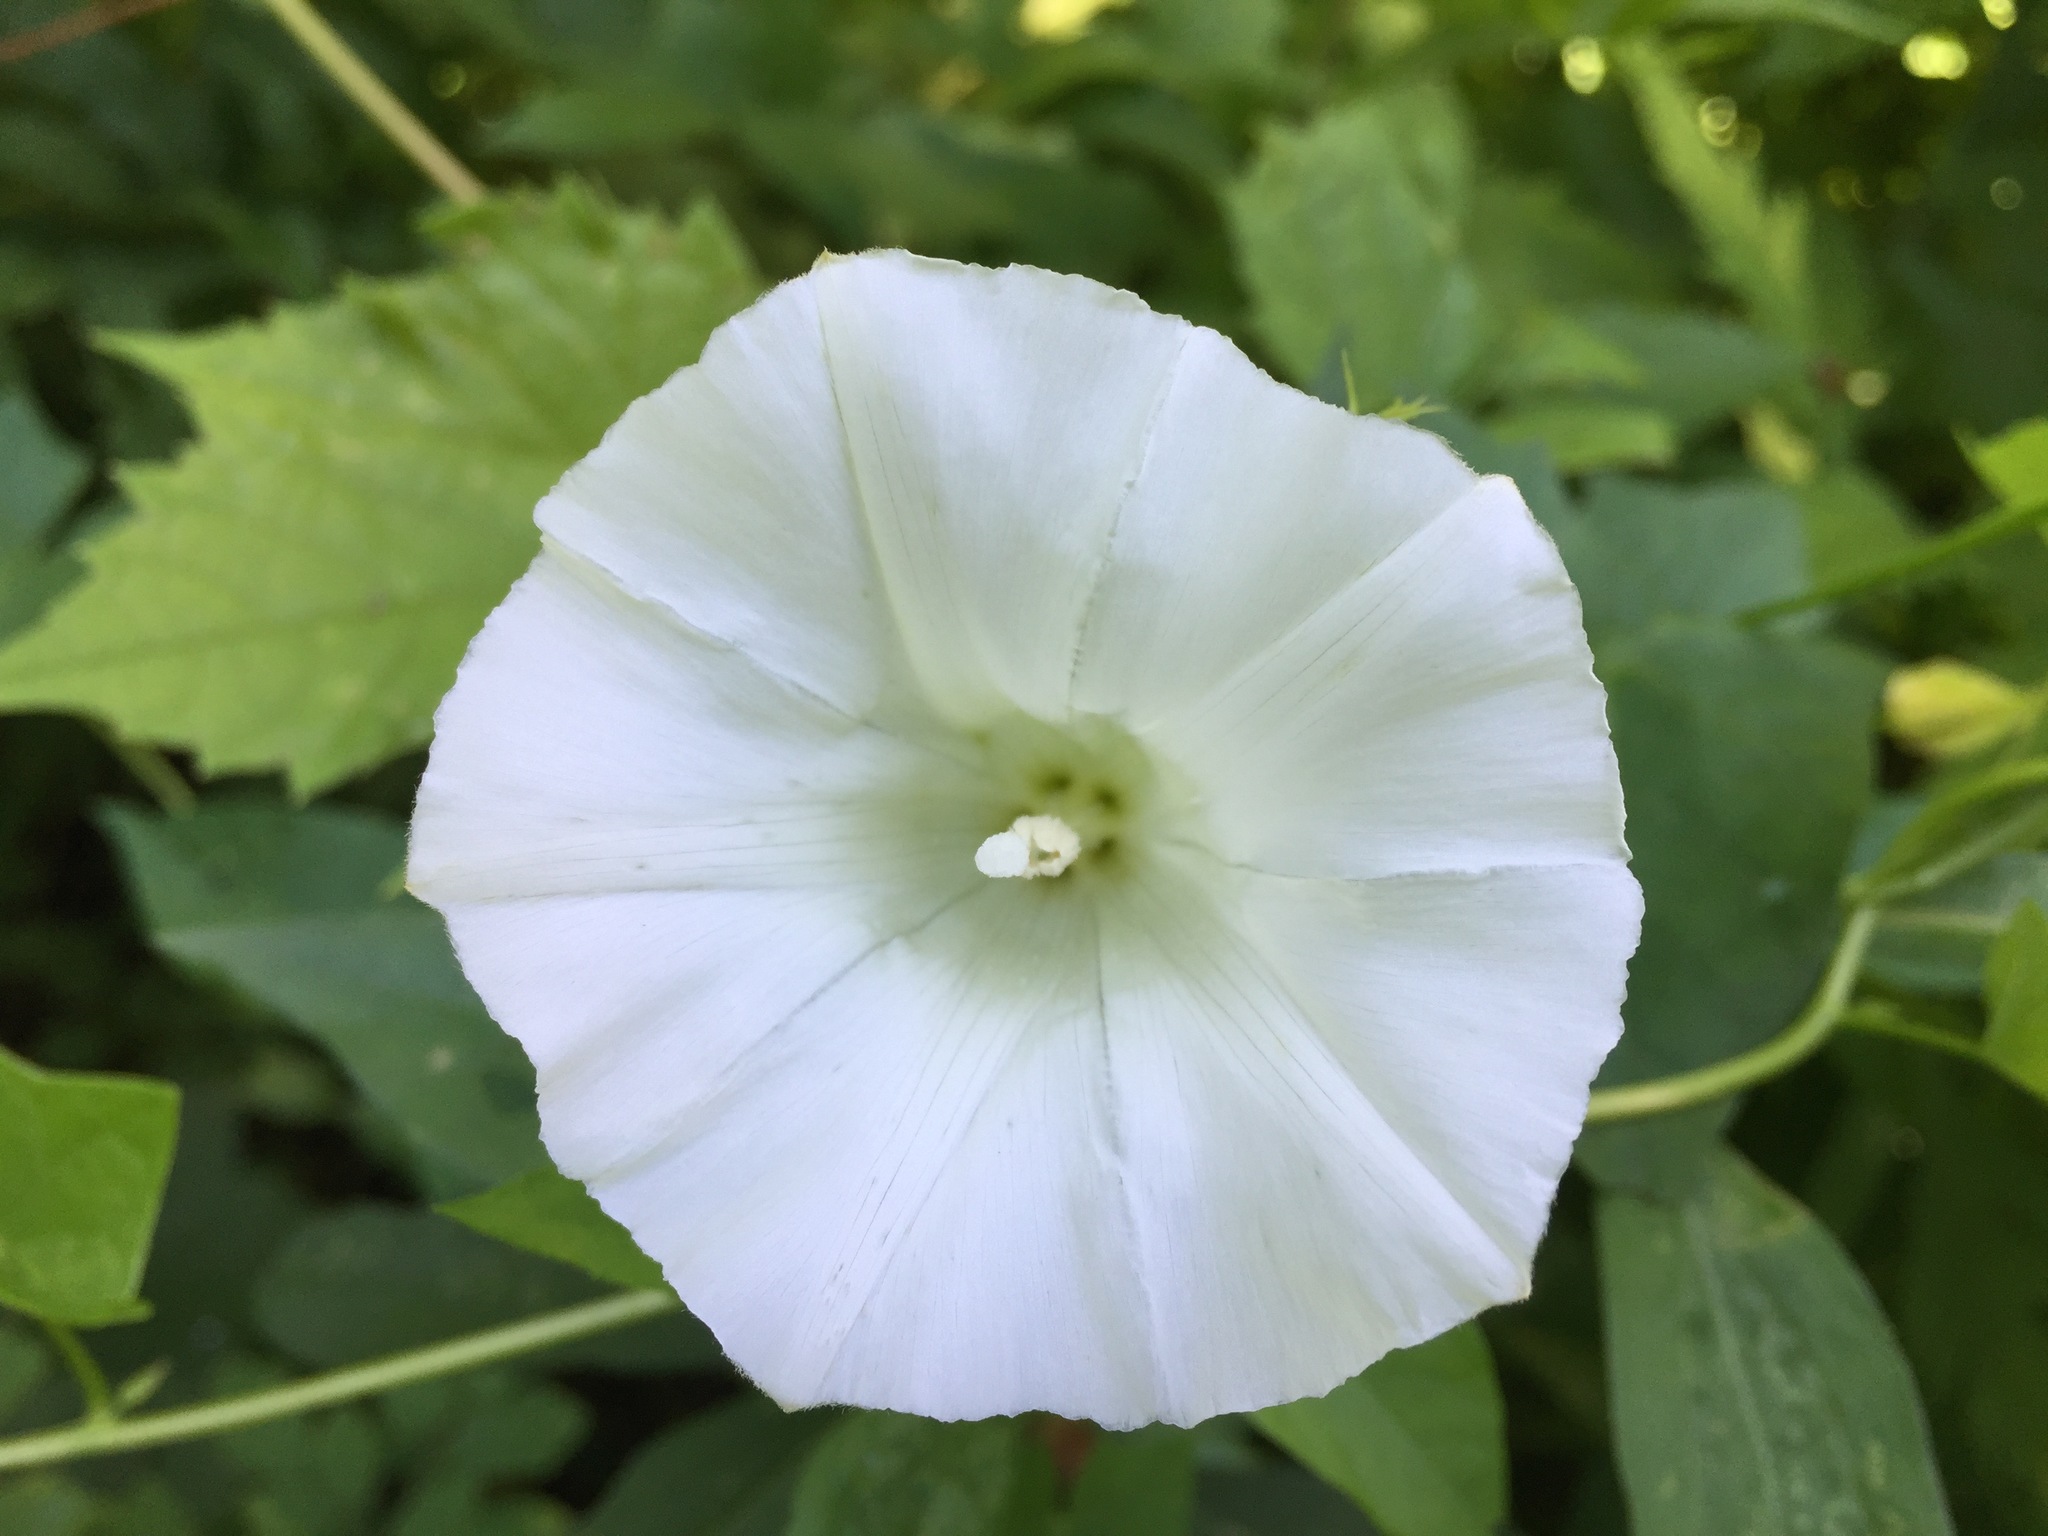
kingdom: Plantae
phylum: Tracheophyta
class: Magnoliopsida
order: Solanales
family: Convolvulaceae
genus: Calystegia
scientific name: Calystegia sepium
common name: Hedge bindweed
